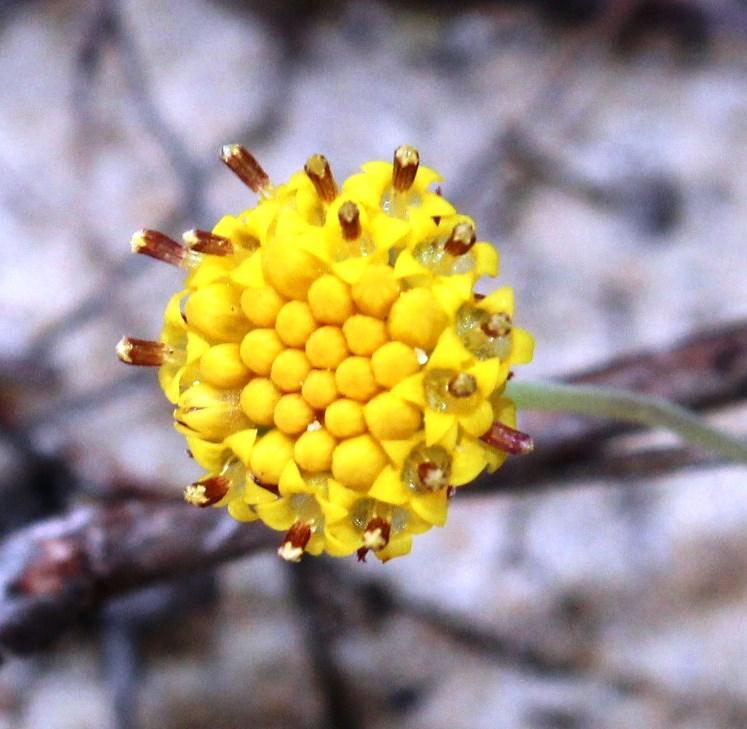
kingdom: Plantae
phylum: Tracheophyta
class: Magnoliopsida
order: Asterales
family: Asteraceae
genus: Othonna
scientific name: Othonna undulosa
